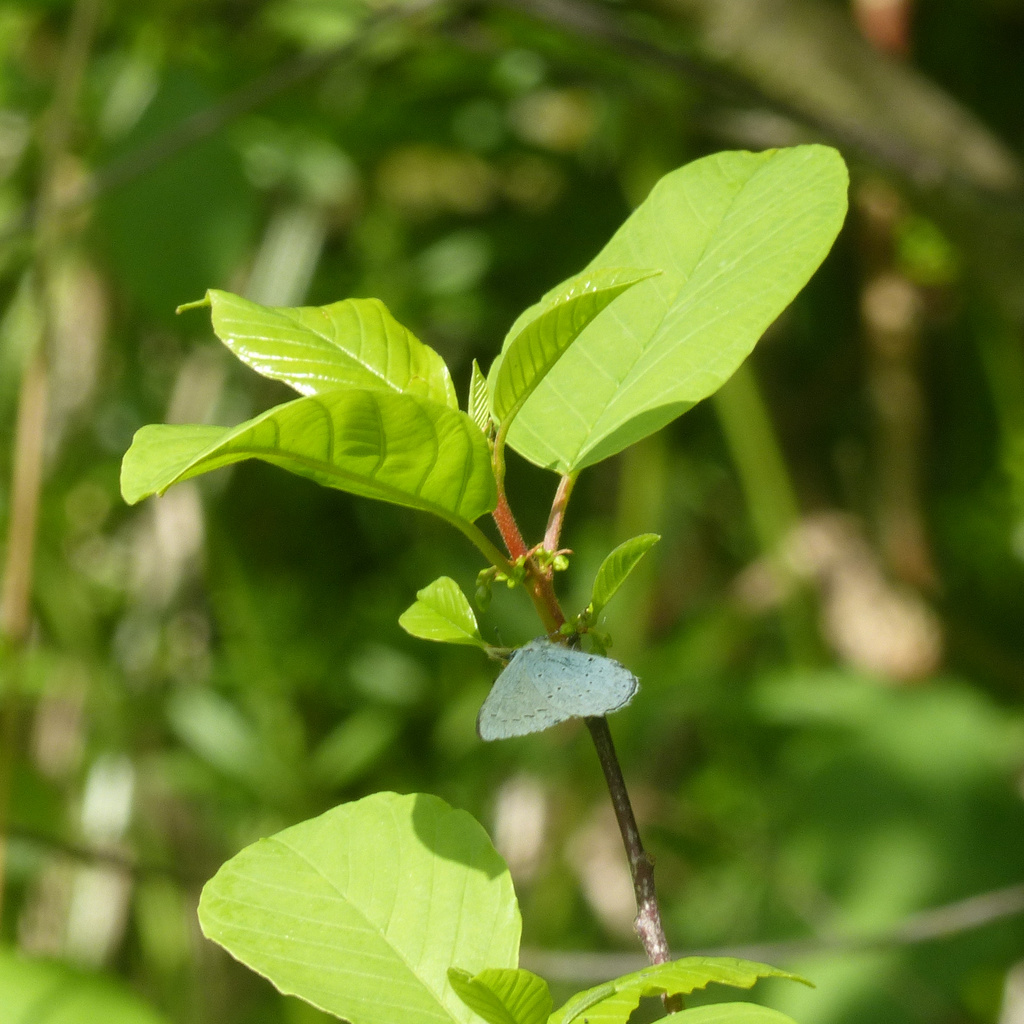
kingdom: Animalia
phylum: Arthropoda
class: Insecta
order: Lepidoptera
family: Lycaenidae
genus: Celastrina
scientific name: Celastrina argiolus
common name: Holly blue
